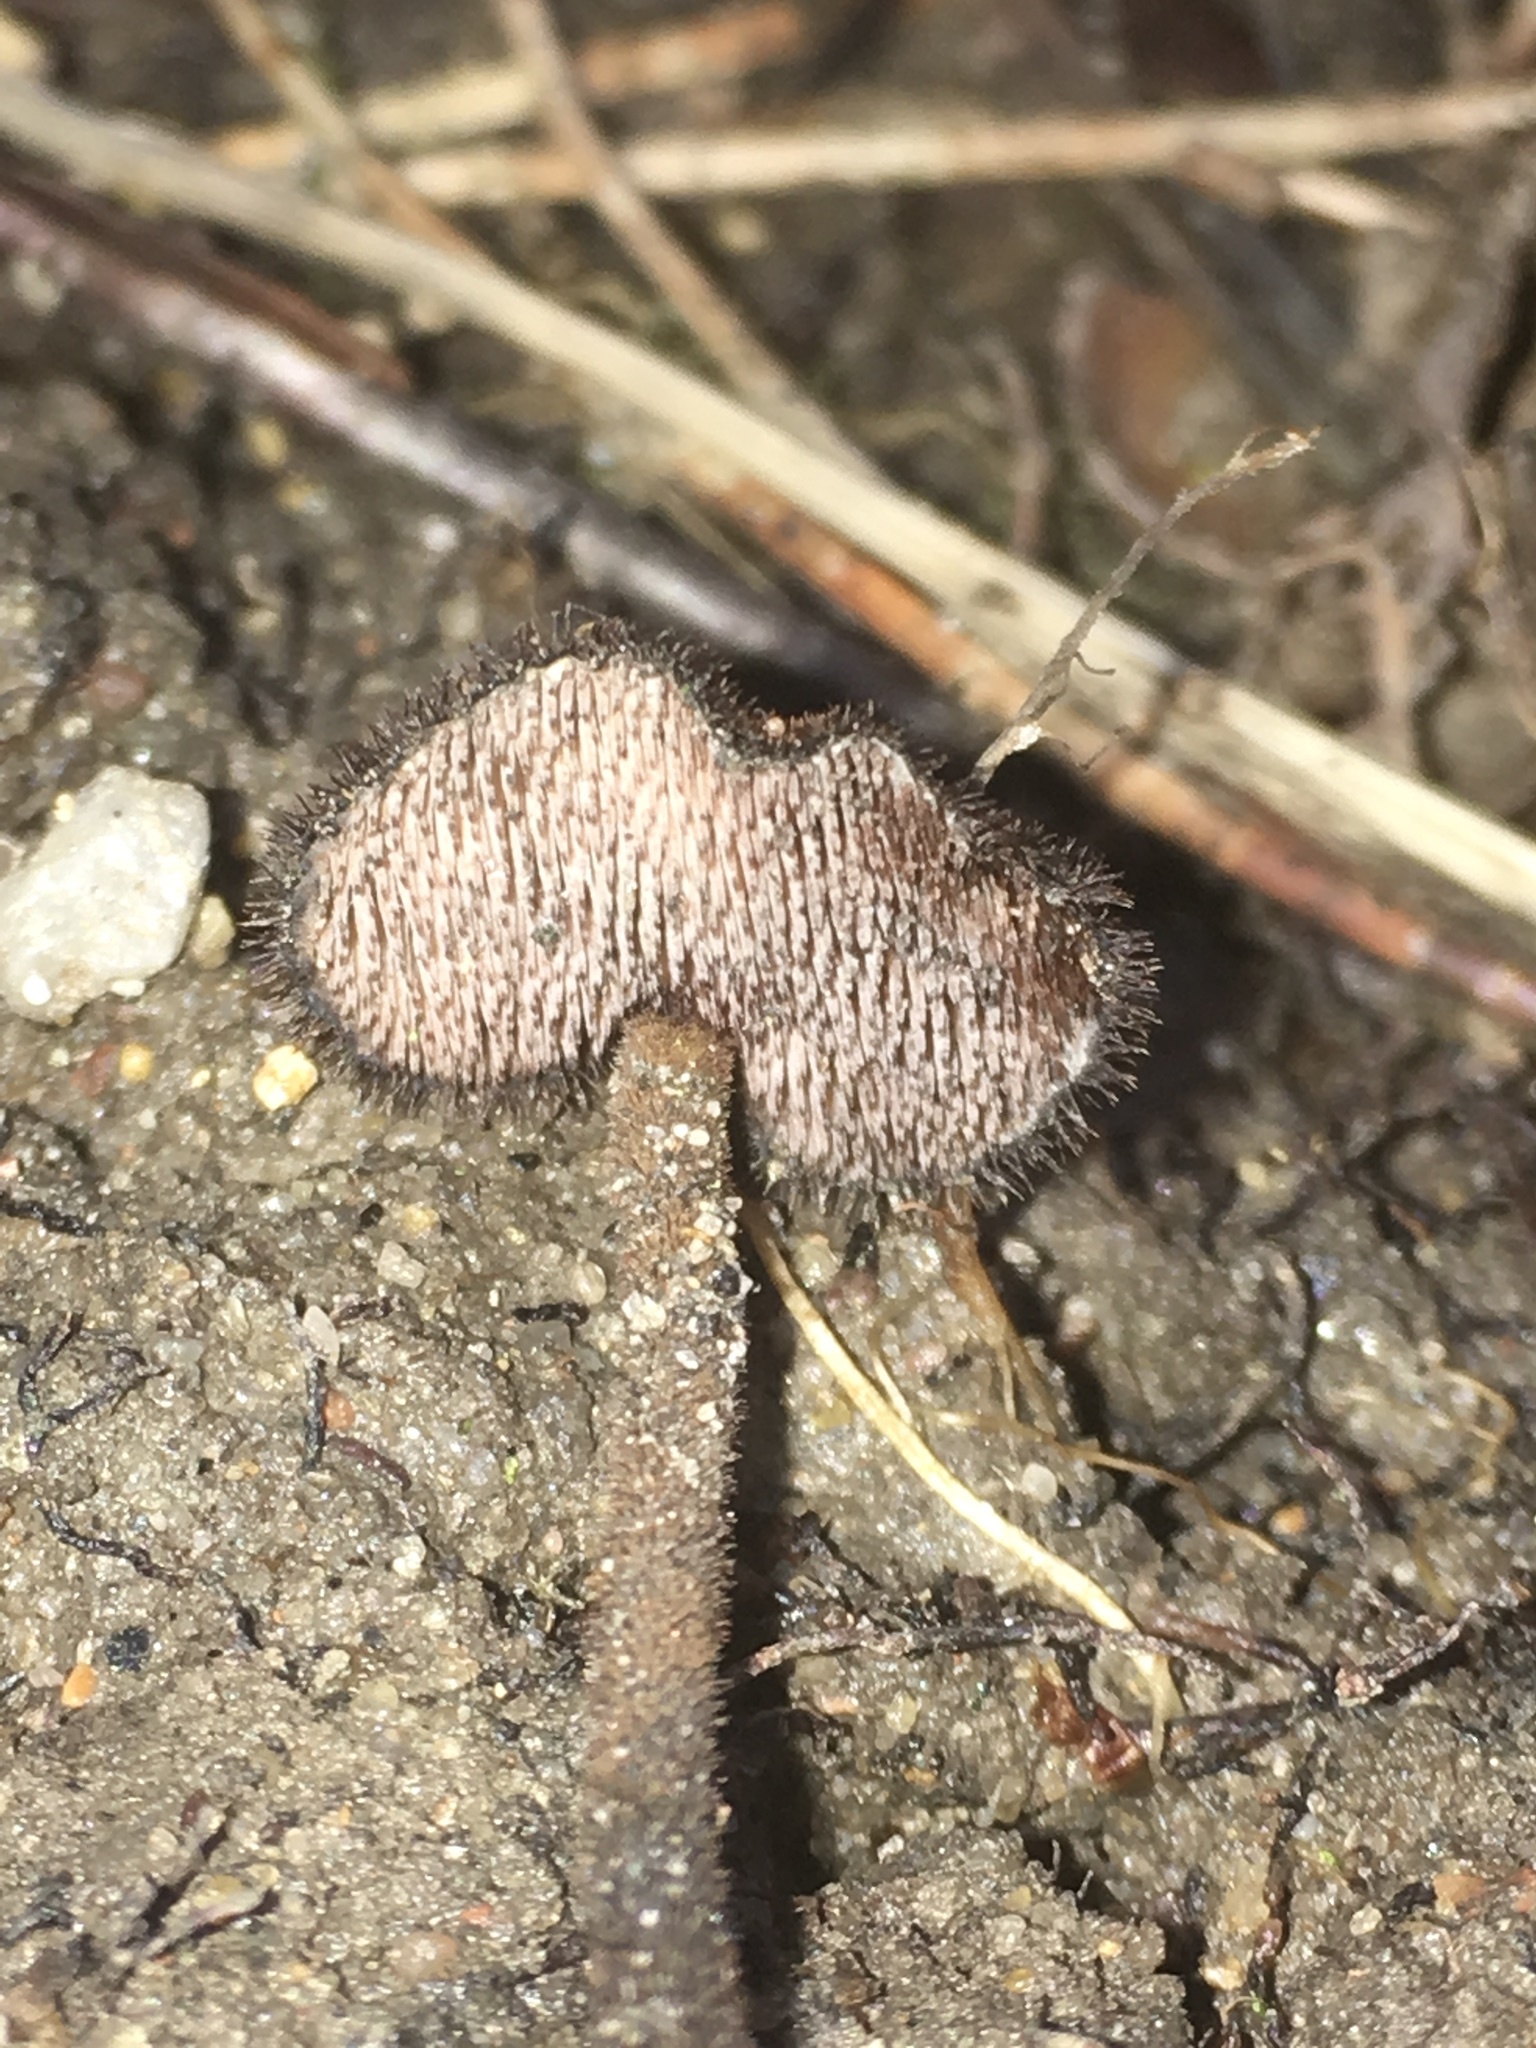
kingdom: Fungi
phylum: Basidiomycota
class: Agaricomycetes
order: Russulales
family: Auriscalpiaceae
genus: Auriscalpium
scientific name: Auriscalpium vulgare
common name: Earpick fungus
